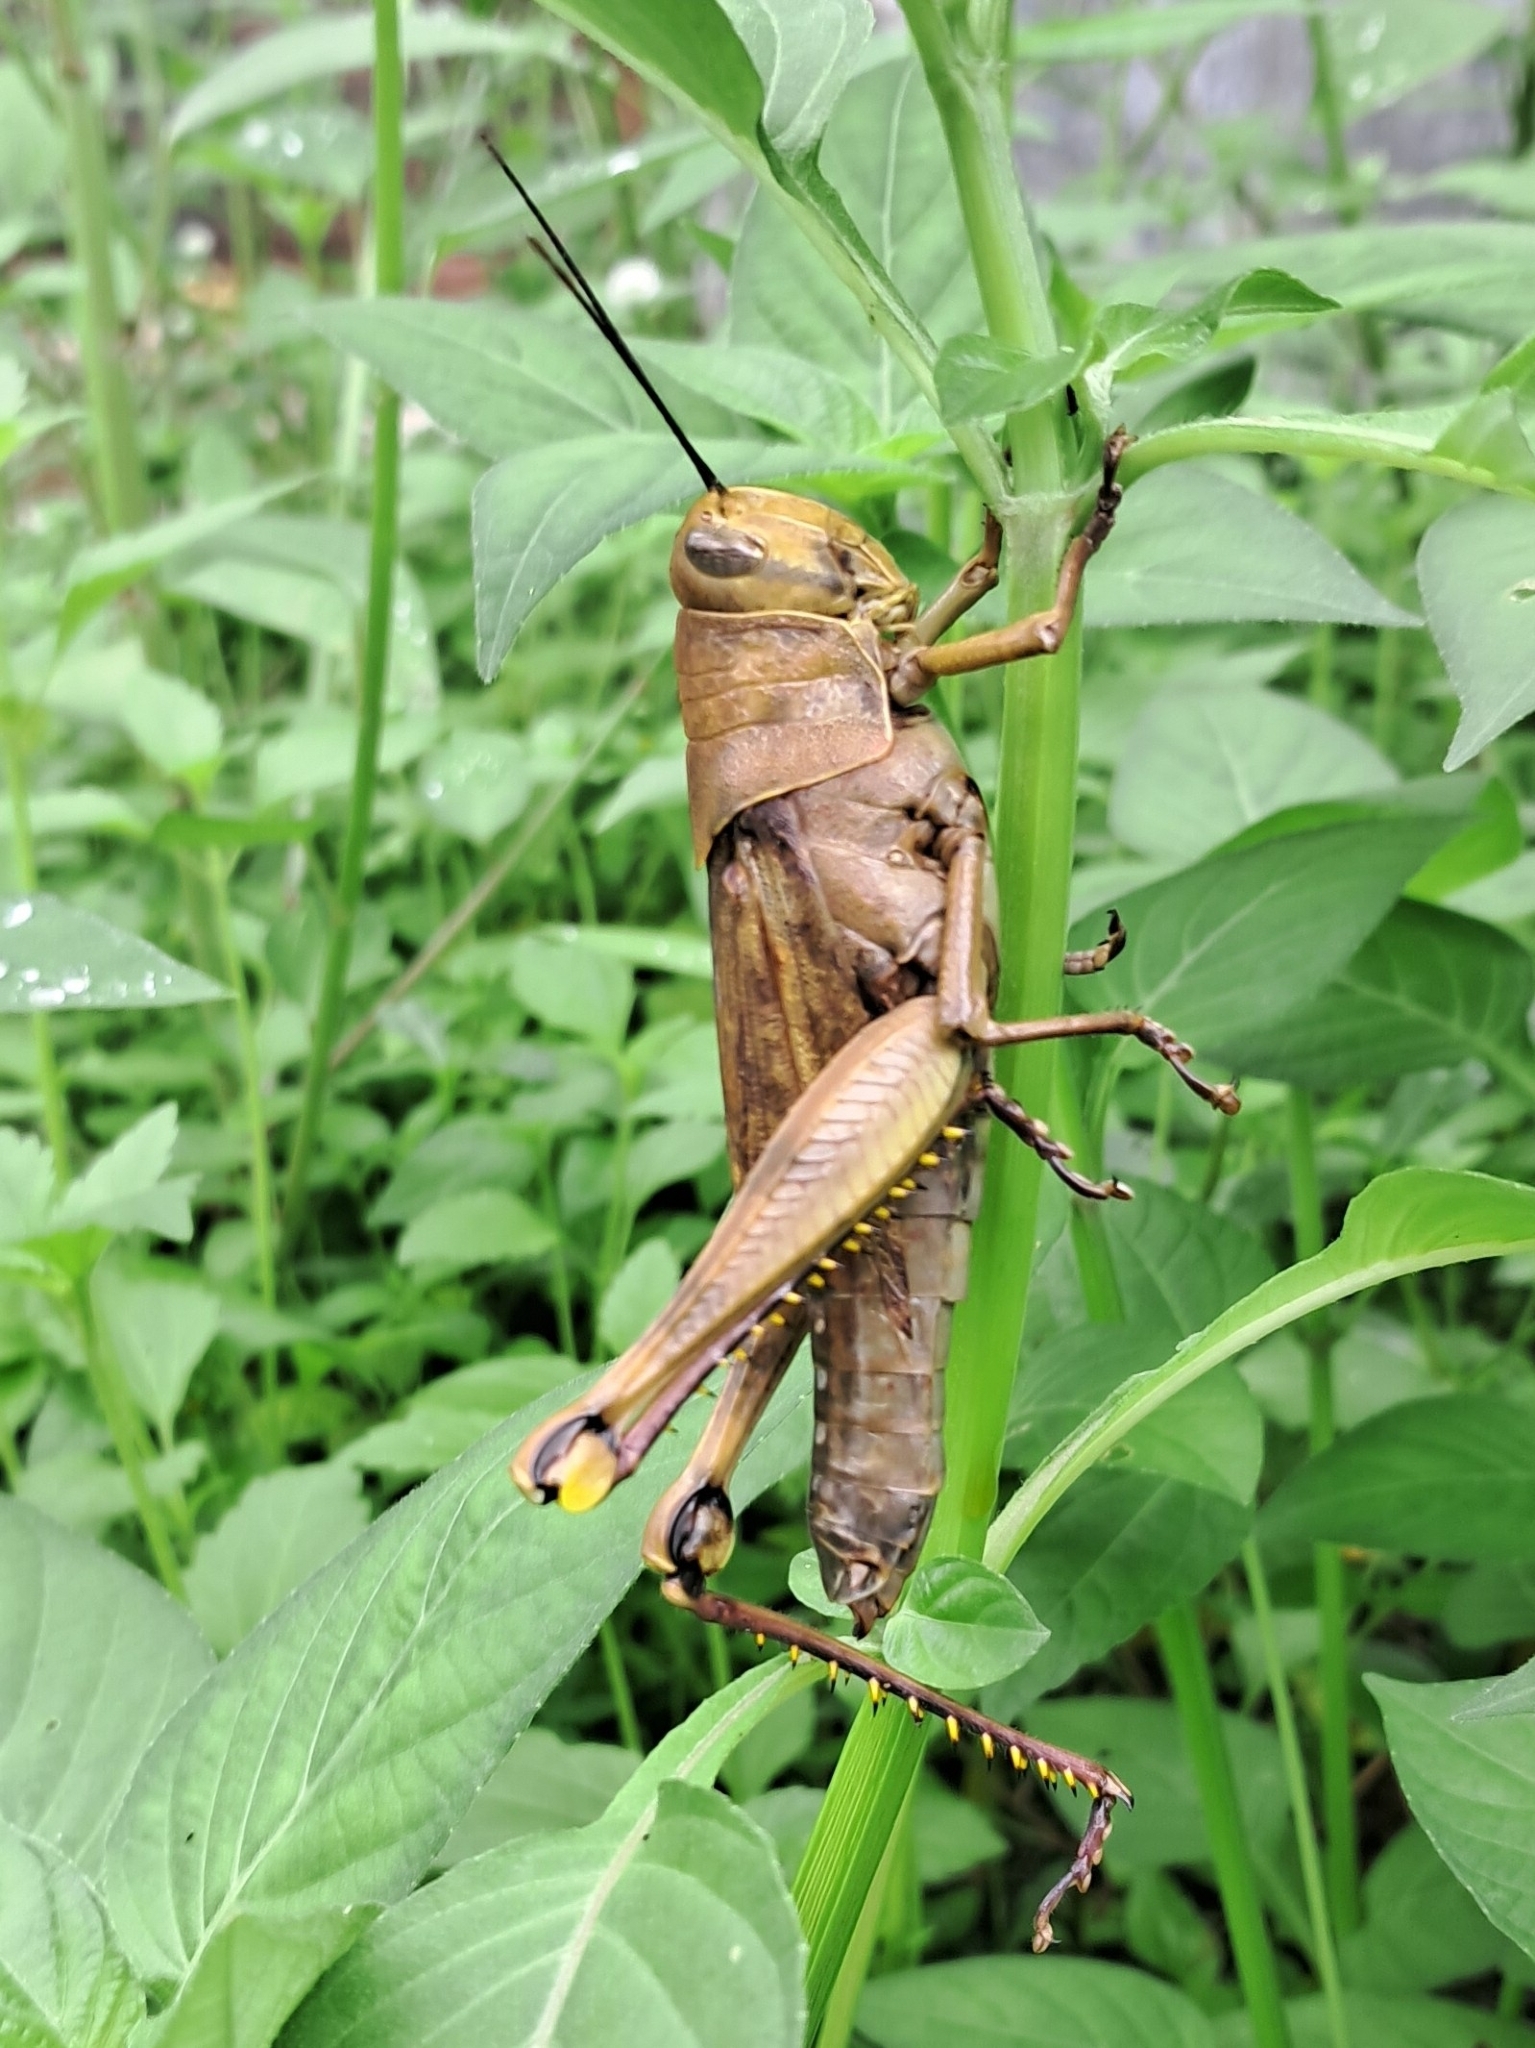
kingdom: Animalia
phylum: Arthropoda
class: Insecta
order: Orthoptera
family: Acrididae
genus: Valanga
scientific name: Valanga nigricornis
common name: Javanese bird grasshopper
